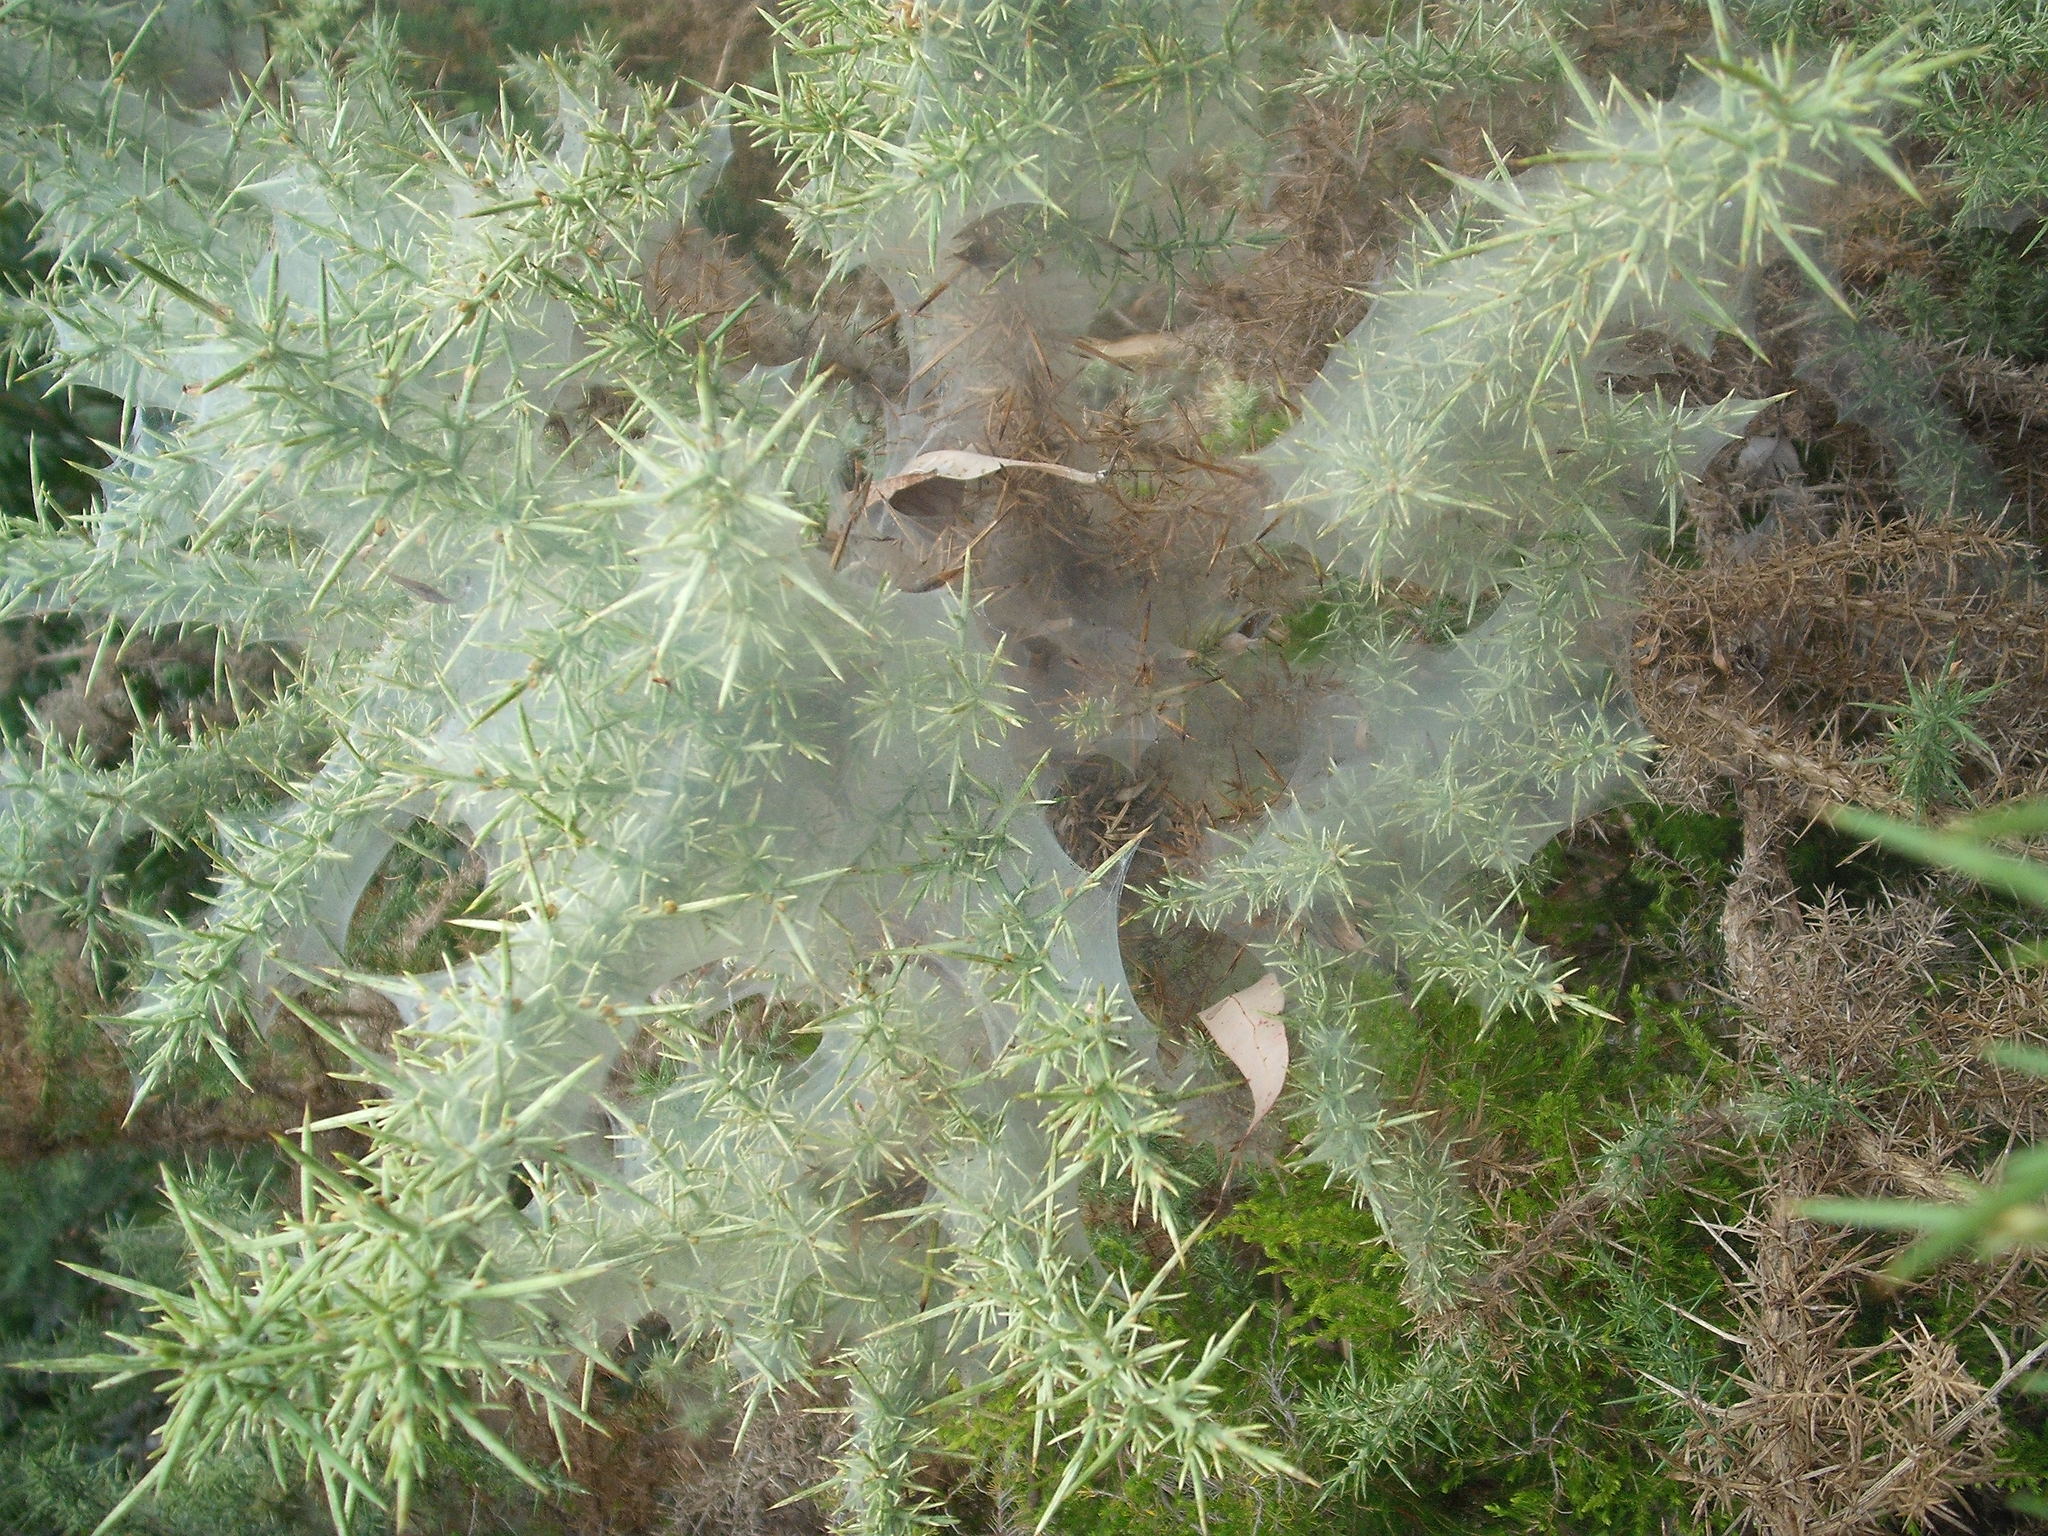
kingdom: Animalia
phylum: Arthropoda
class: Arachnida
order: Trombidiformes
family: Tetranychidae
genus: Tetranychus
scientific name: Tetranychus lintearius
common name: Gorse spider mite
